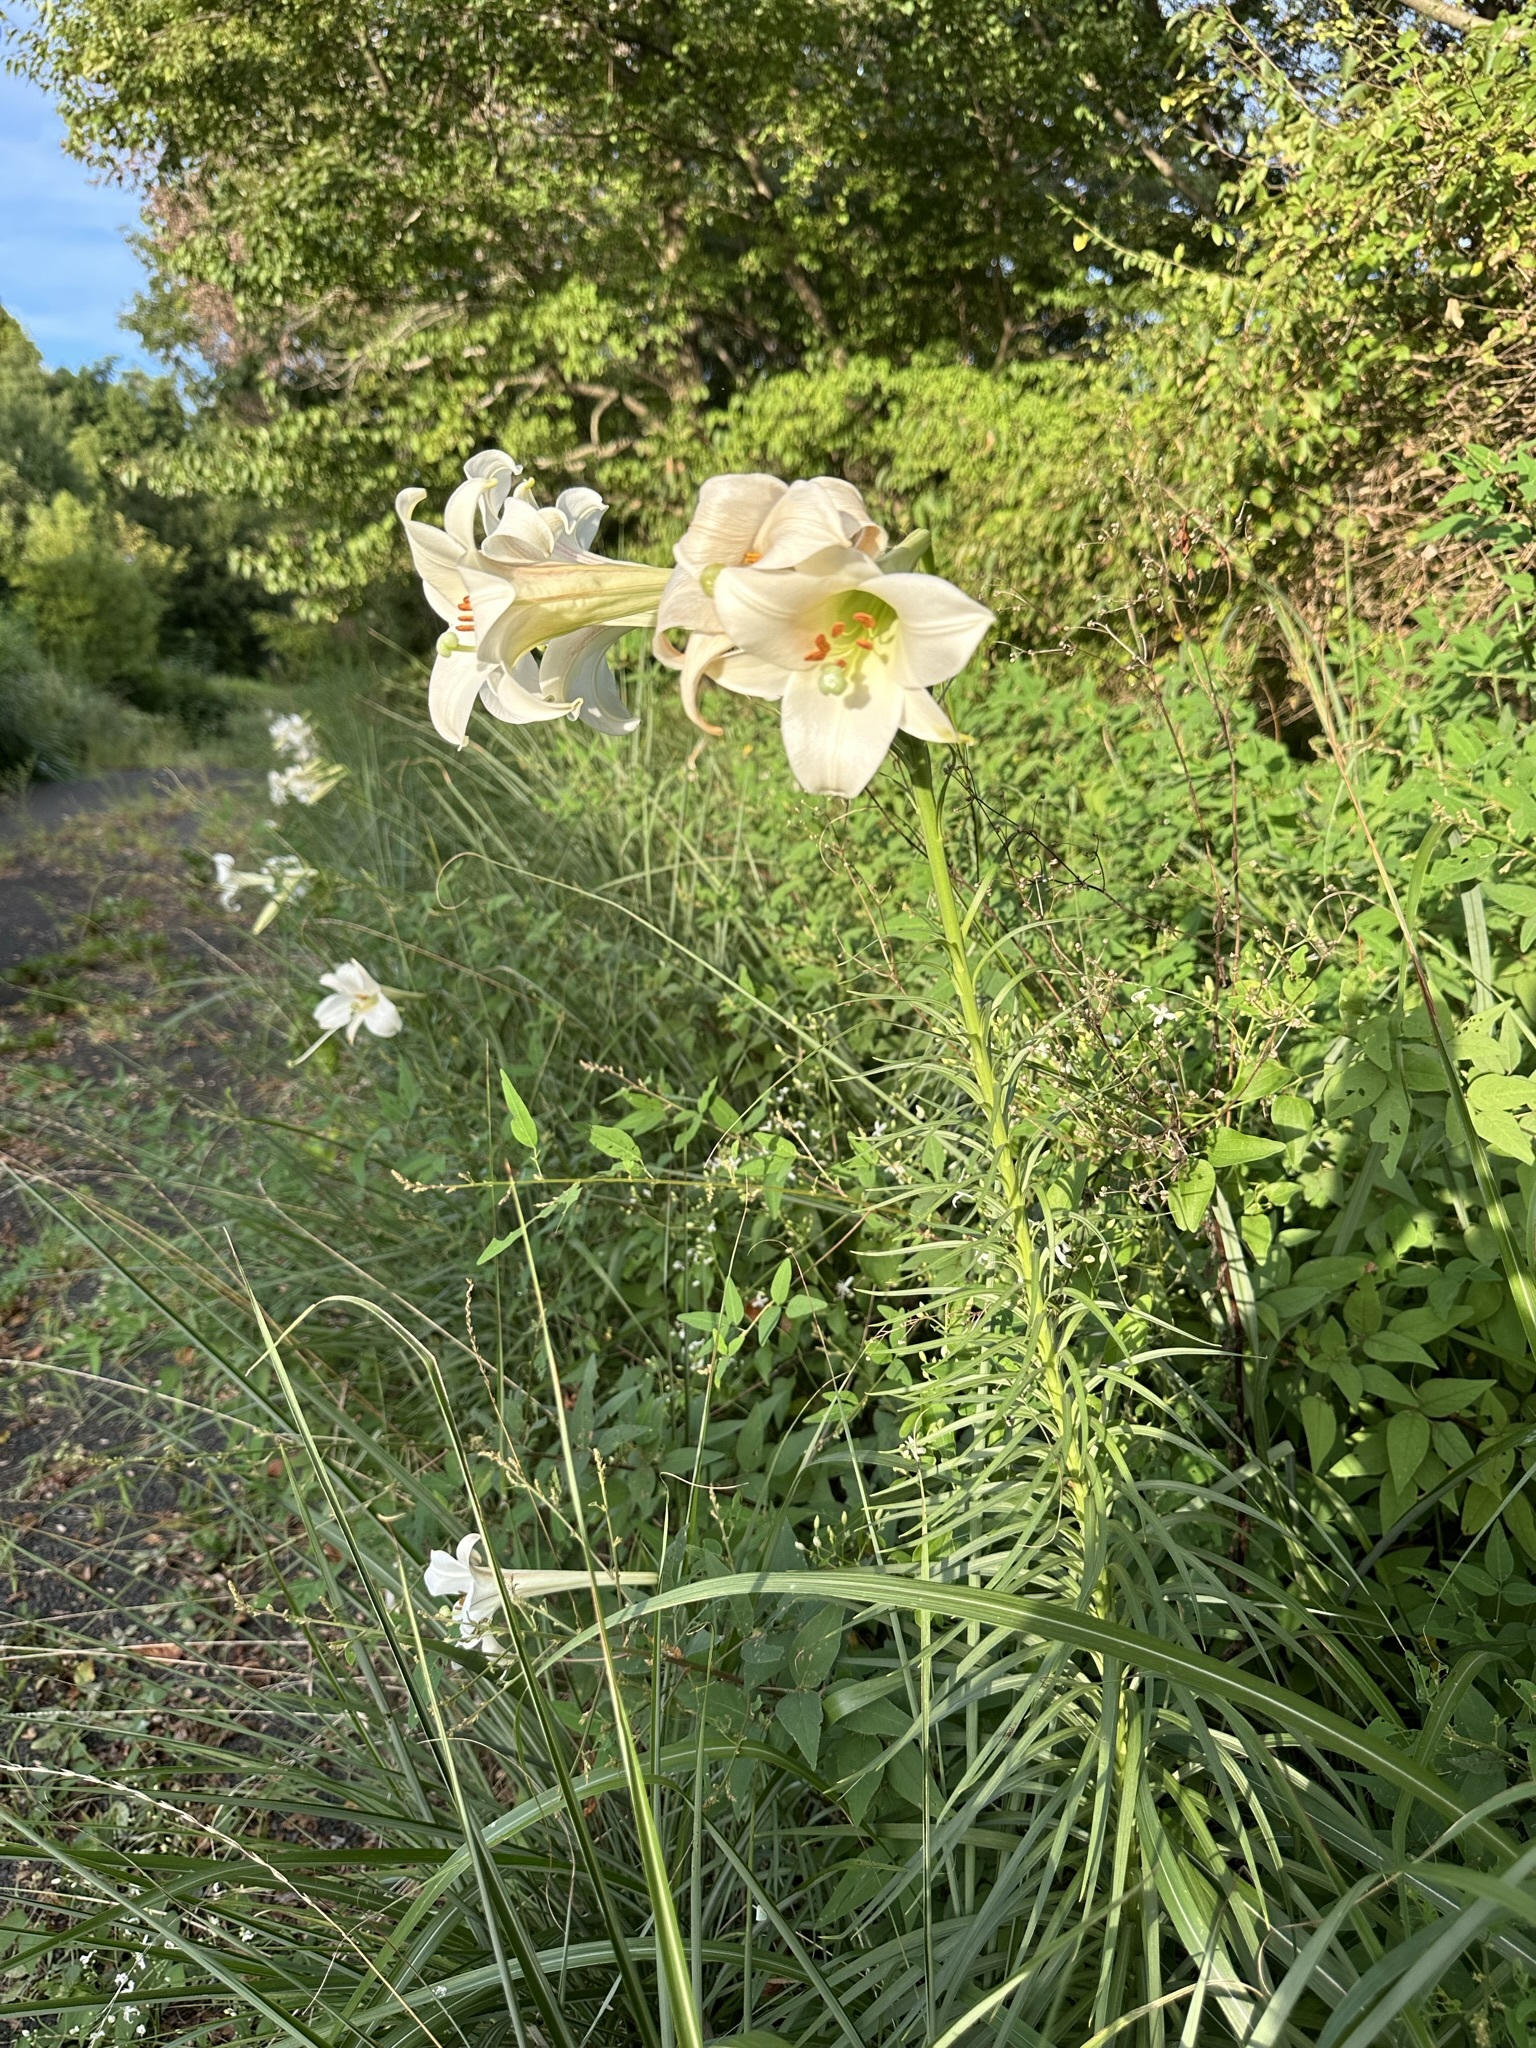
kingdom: Plantae
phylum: Tracheophyta
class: Liliopsida
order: Liliales
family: Liliaceae
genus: Lilium
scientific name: Lilium formosanum
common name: Formosa lily
